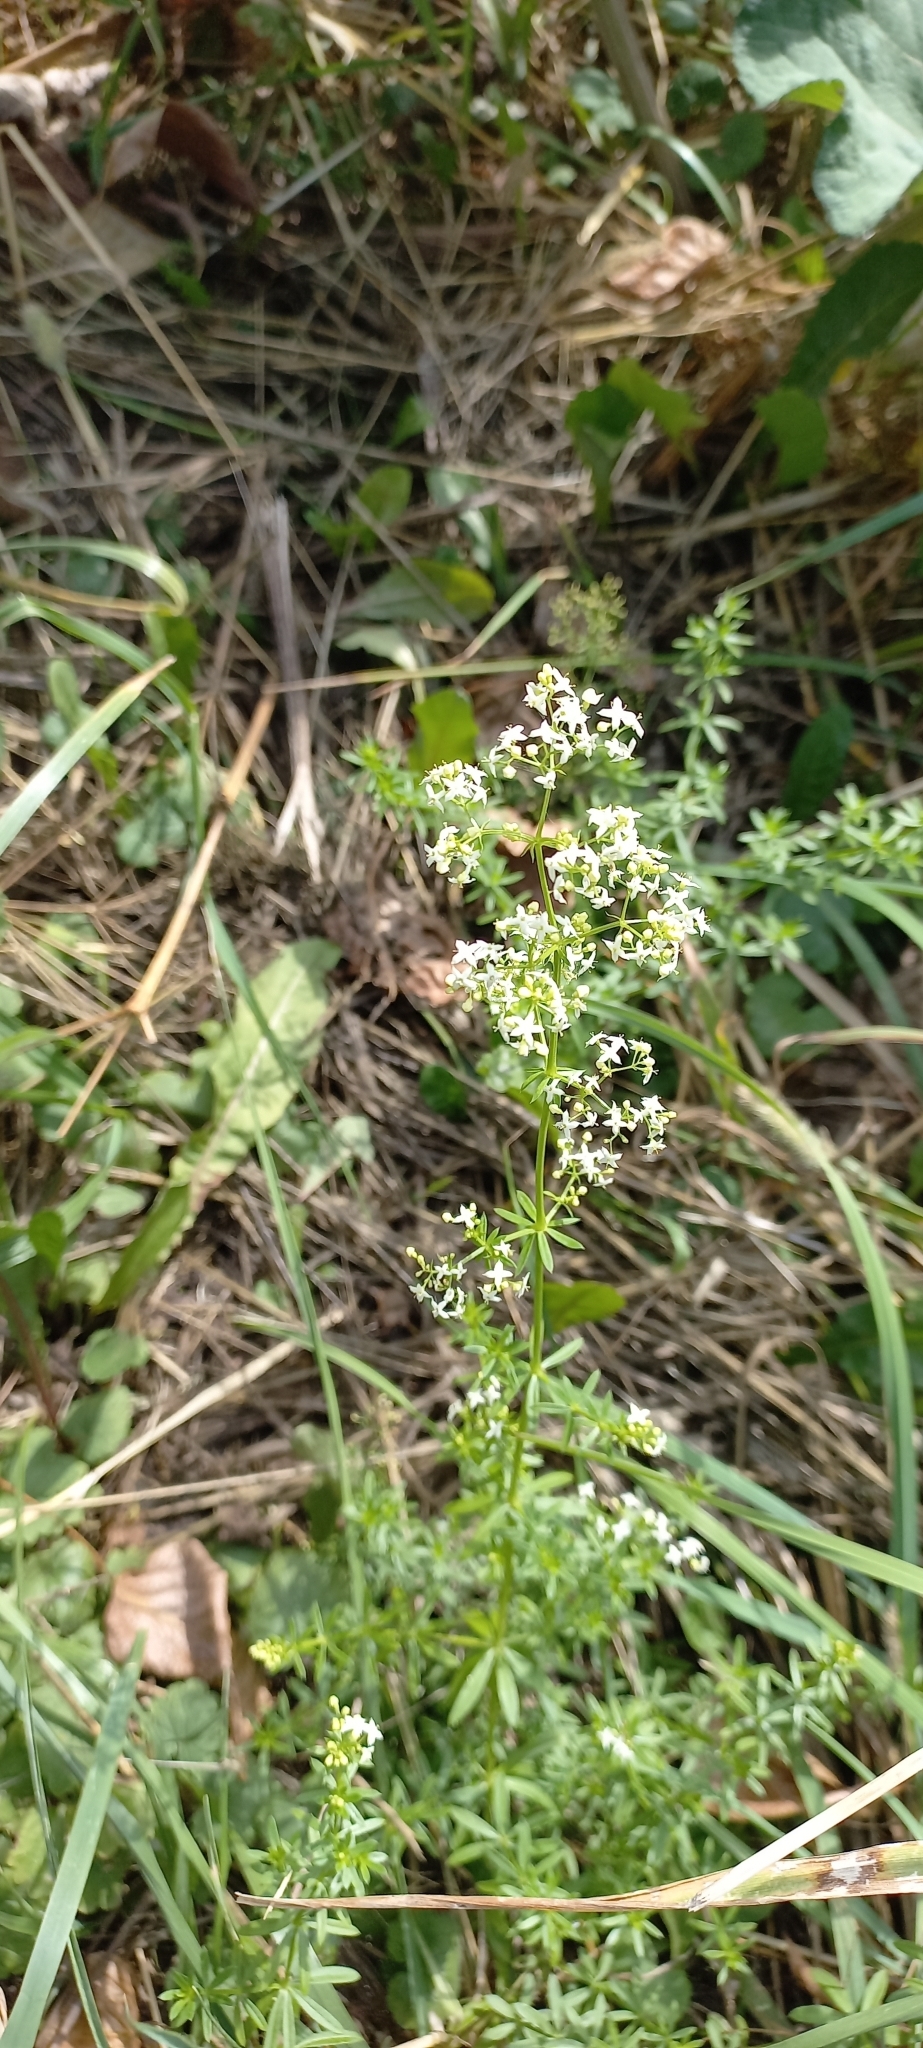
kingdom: Plantae
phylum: Tracheophyta
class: Magnoliopsida
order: Gentianales
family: Rubiaceae
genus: Galium
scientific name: Galium mollugo
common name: Hedge bedstraw
